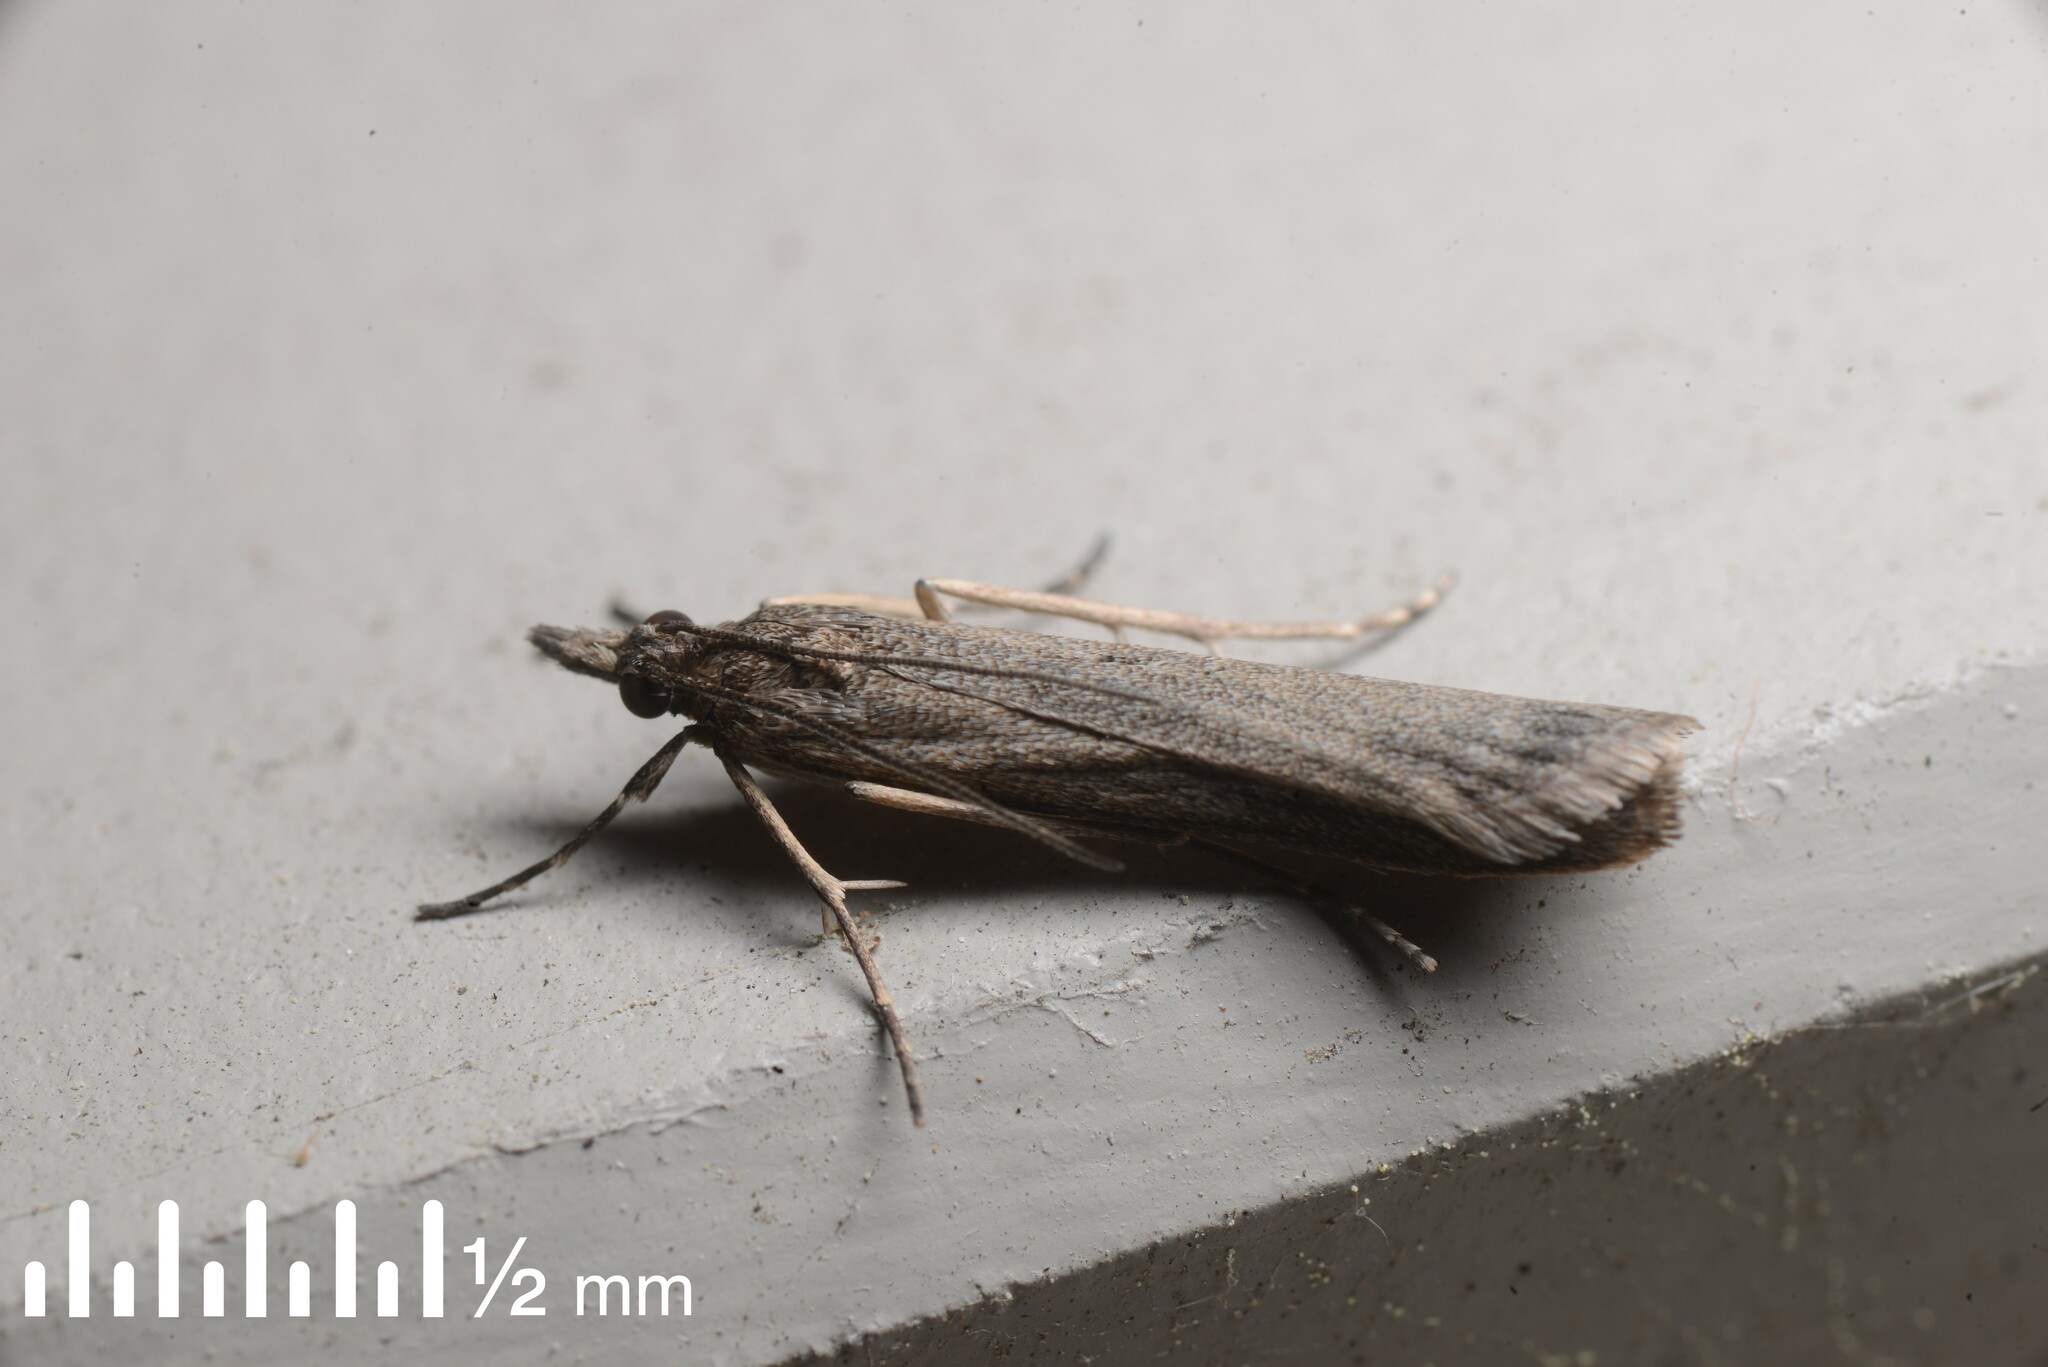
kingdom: Animalia
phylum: Arthropoda
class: Insecta
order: Lepidoptera
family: Crambidae
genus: Eudonia
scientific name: Eudonia leptalea
